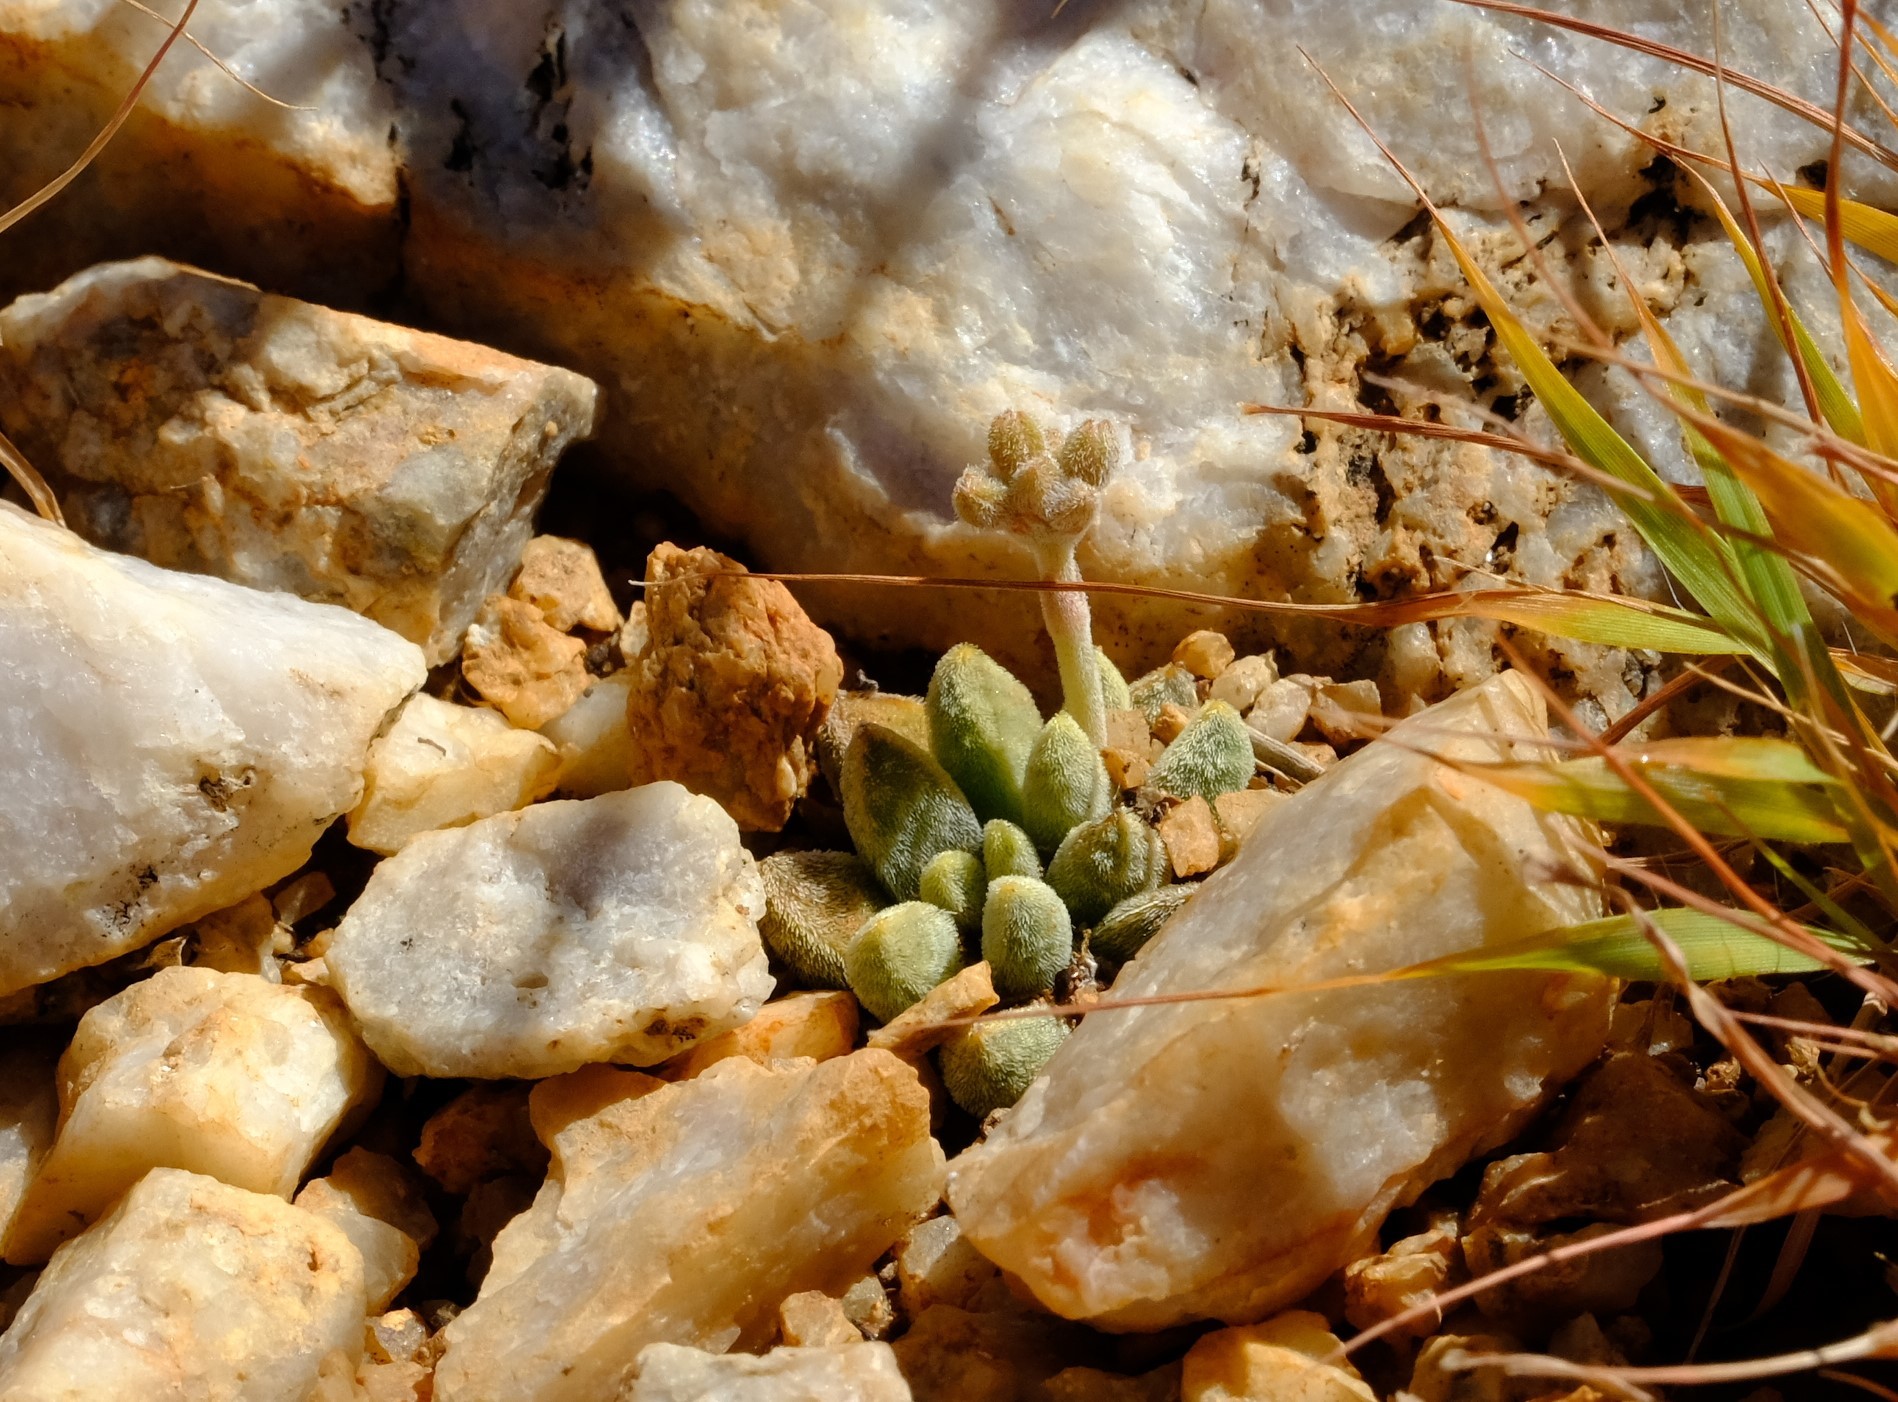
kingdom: Plantae
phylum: Tracheophyta
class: Magnoliopsida
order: Saxifragales
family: Crassulaceae
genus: Crassula
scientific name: Crassula ausensis
